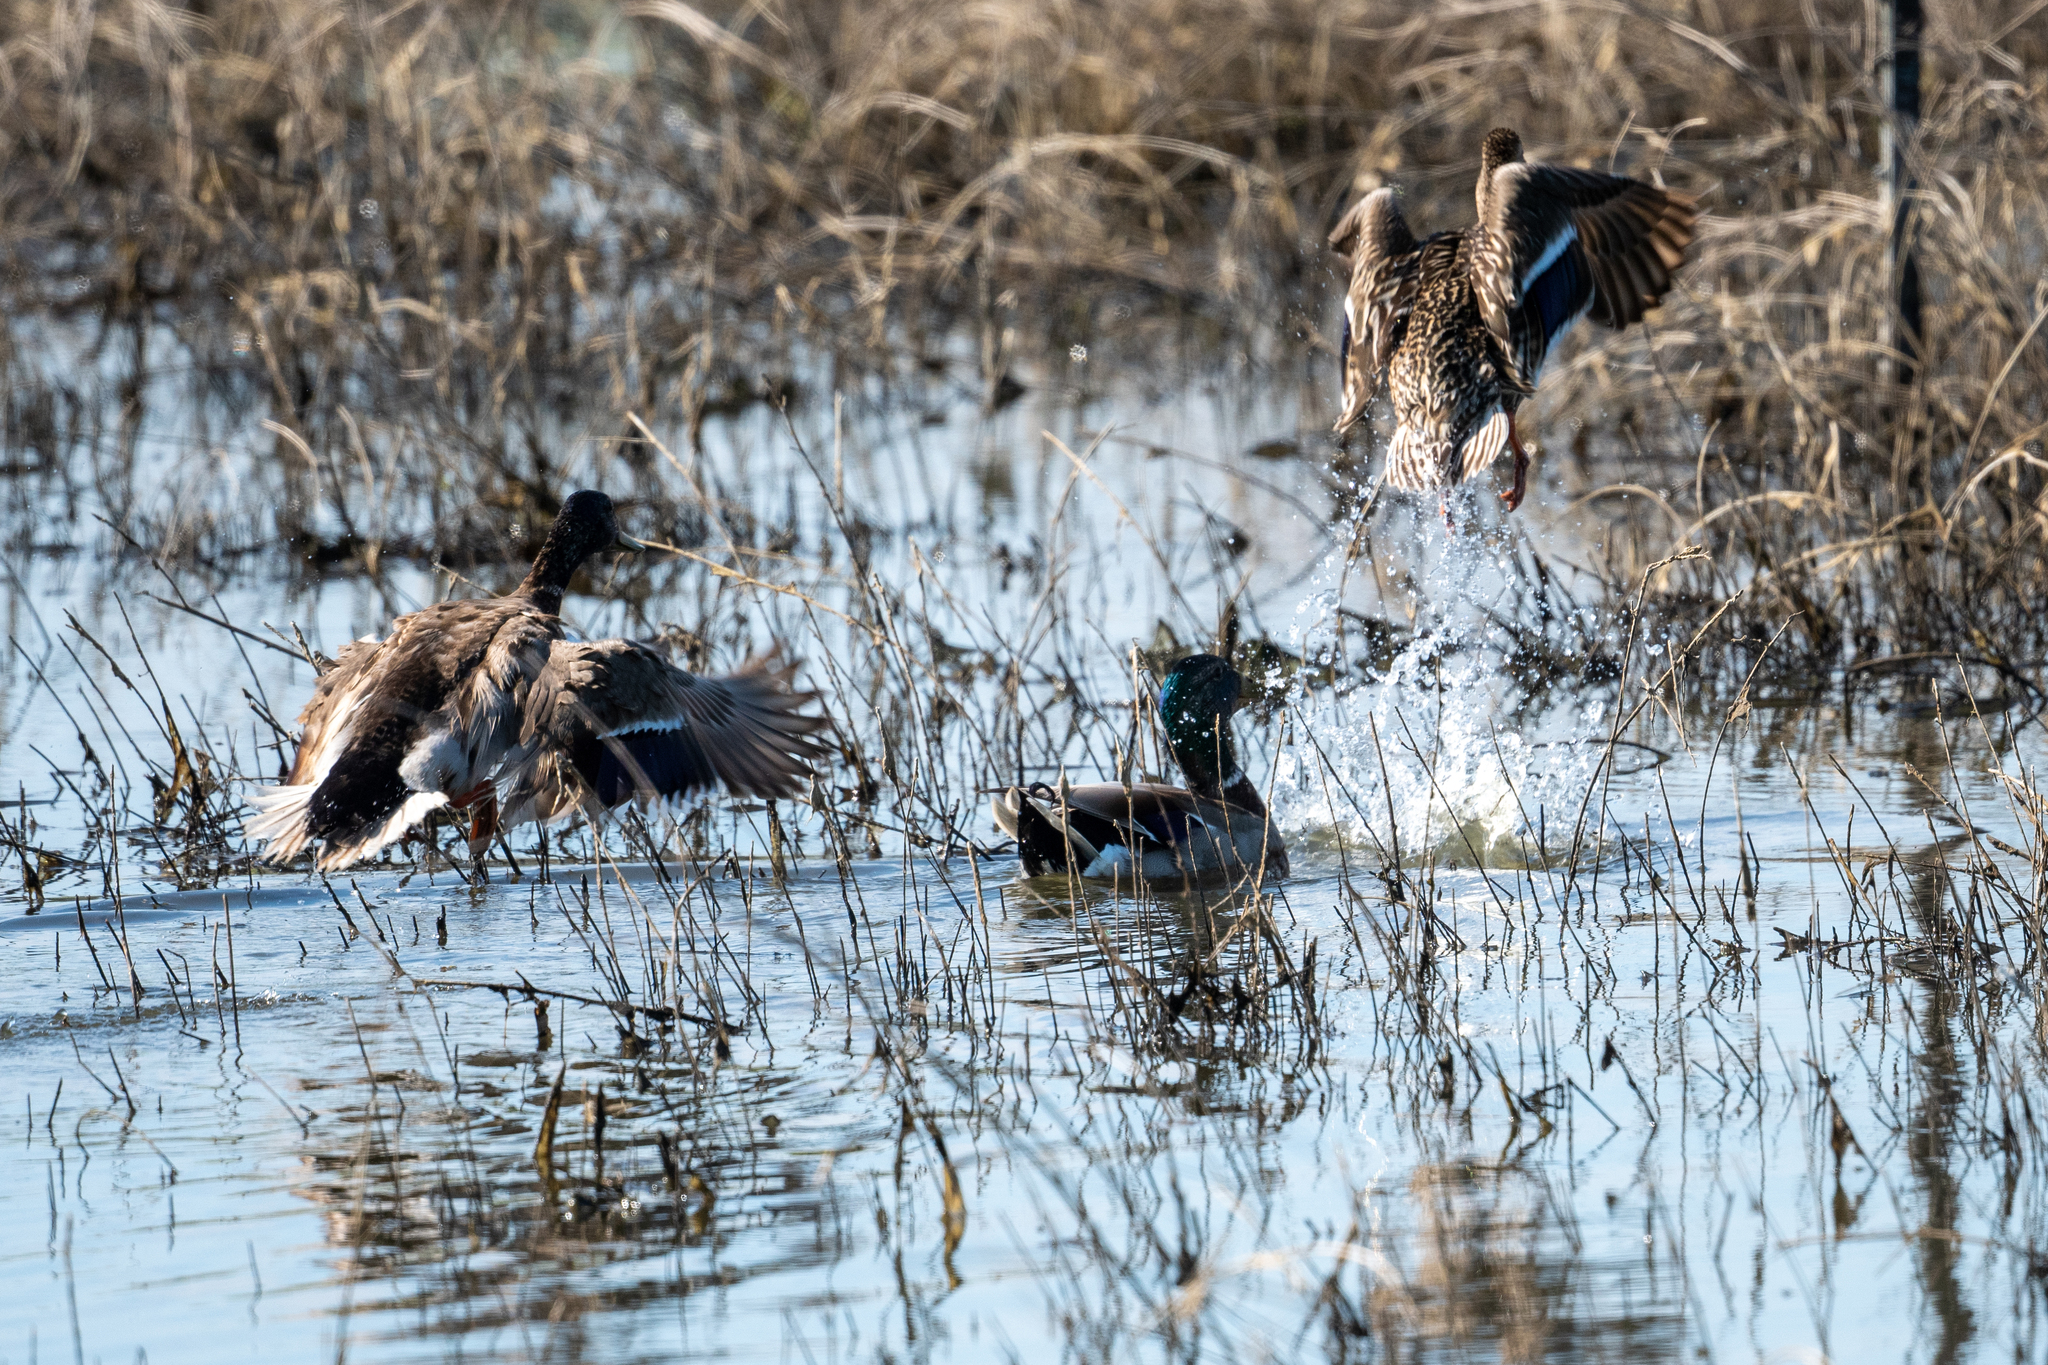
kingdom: Animalia
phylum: Chordata
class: Aves
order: Anseriformes
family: Anatidae
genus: Anas
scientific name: Anas platyrhynchos
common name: Mallard
